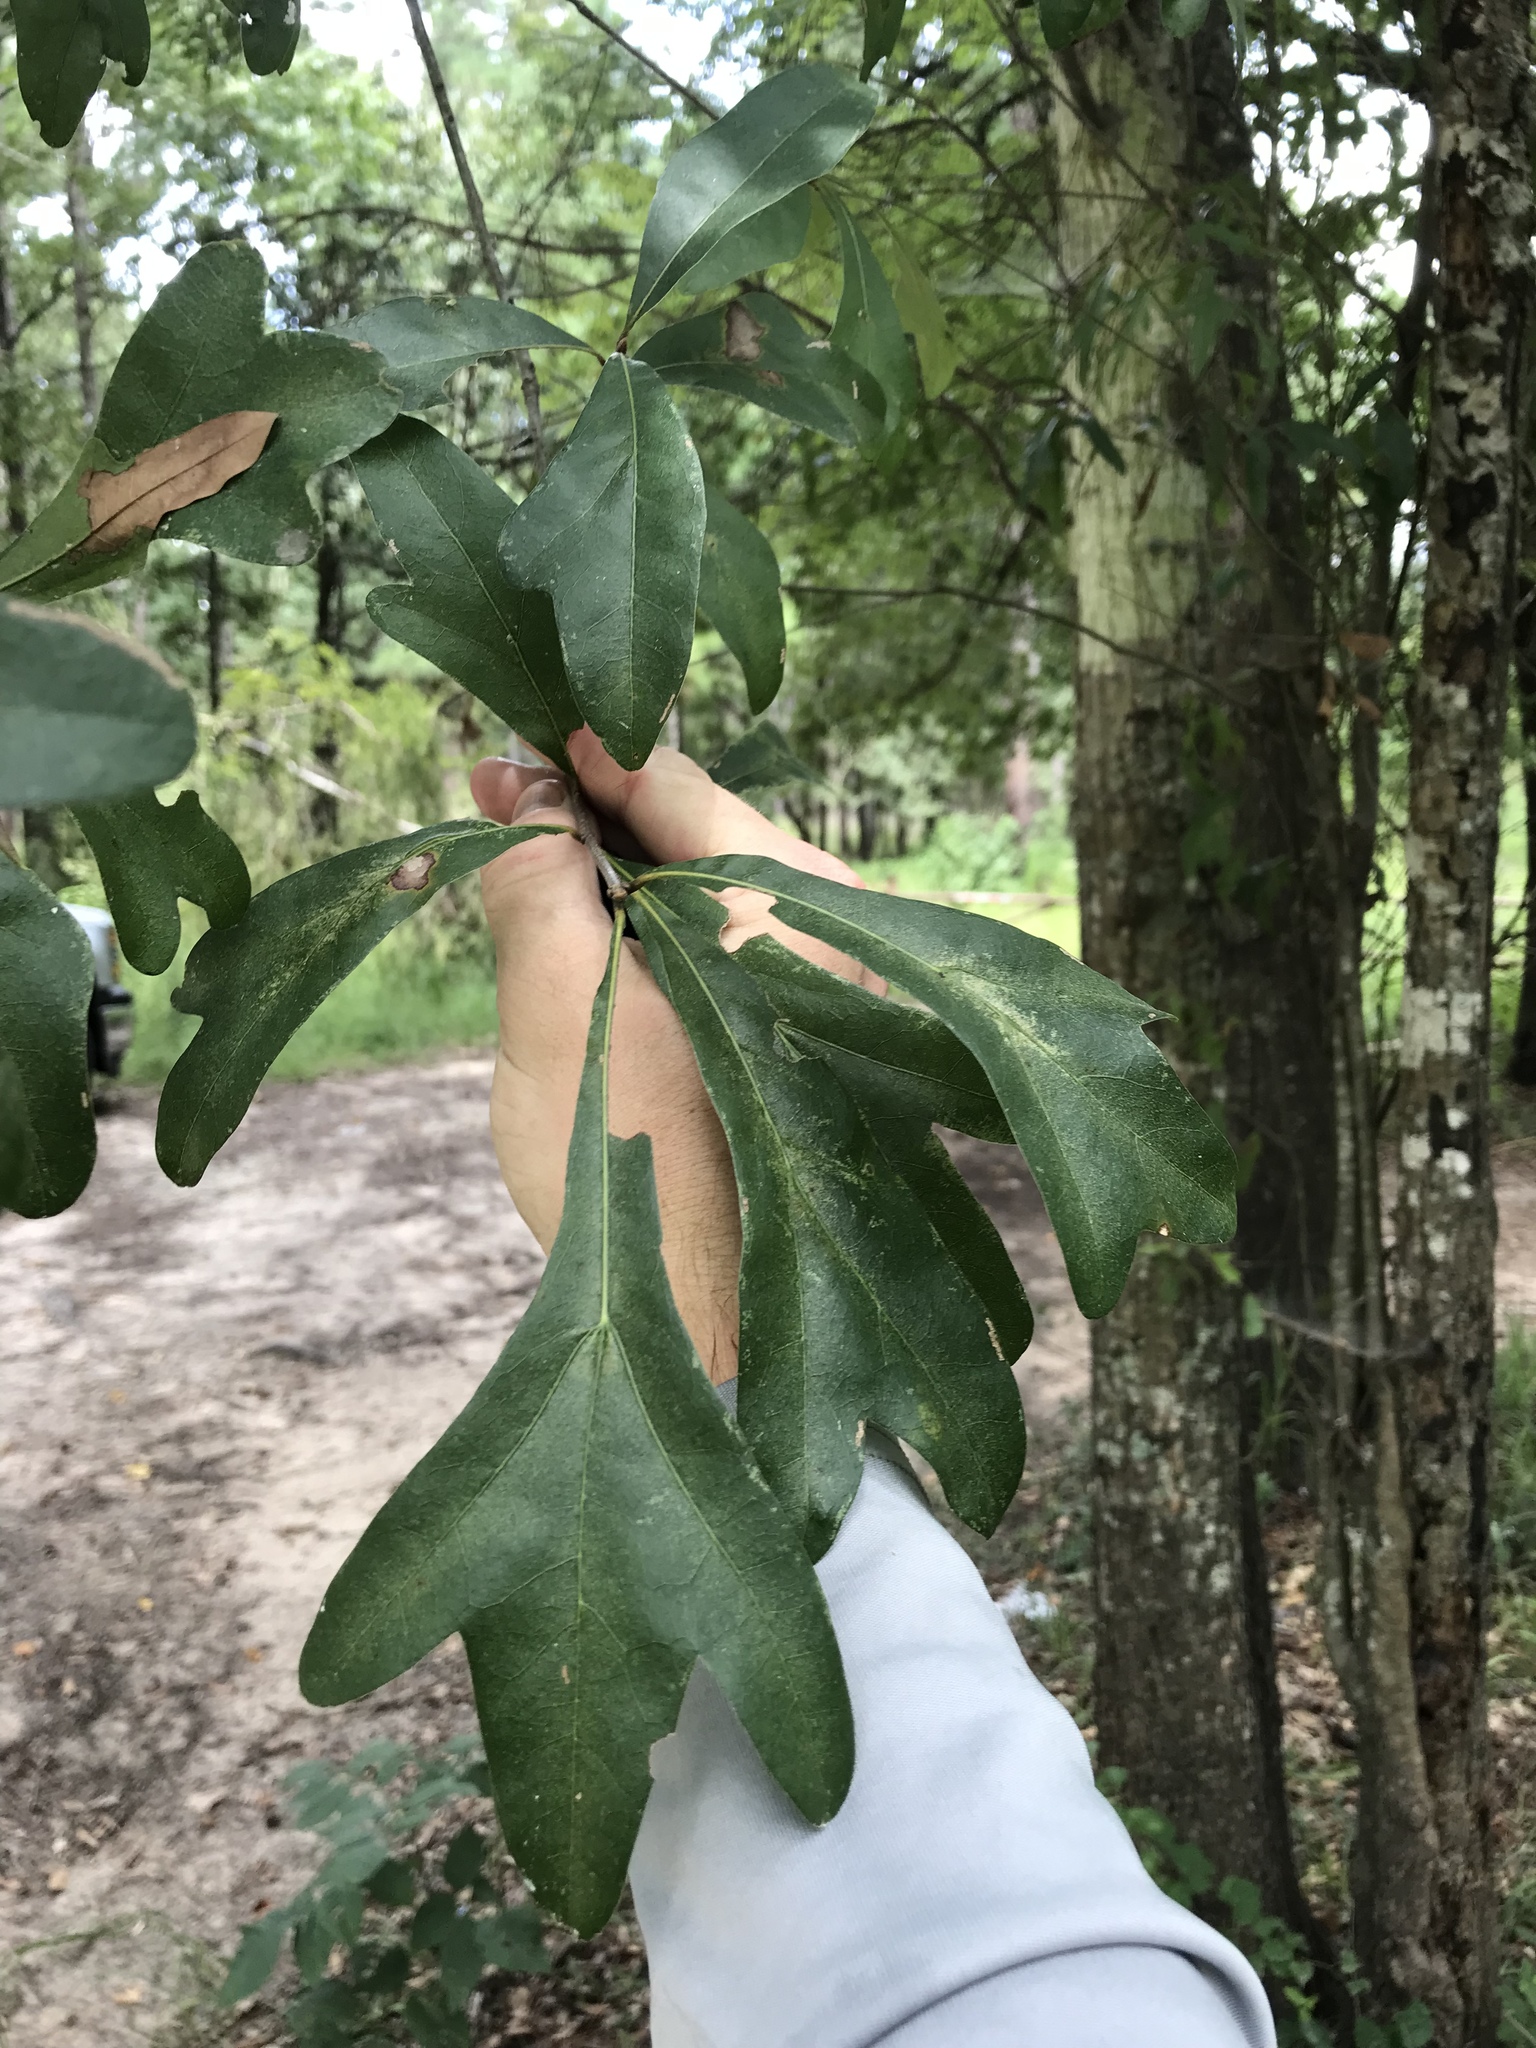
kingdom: Plantae
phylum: Tracheophyta
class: Magnoliopsida
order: Fagales
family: Fagaceae
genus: Quercus
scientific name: Quercus nigra
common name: Water oak
